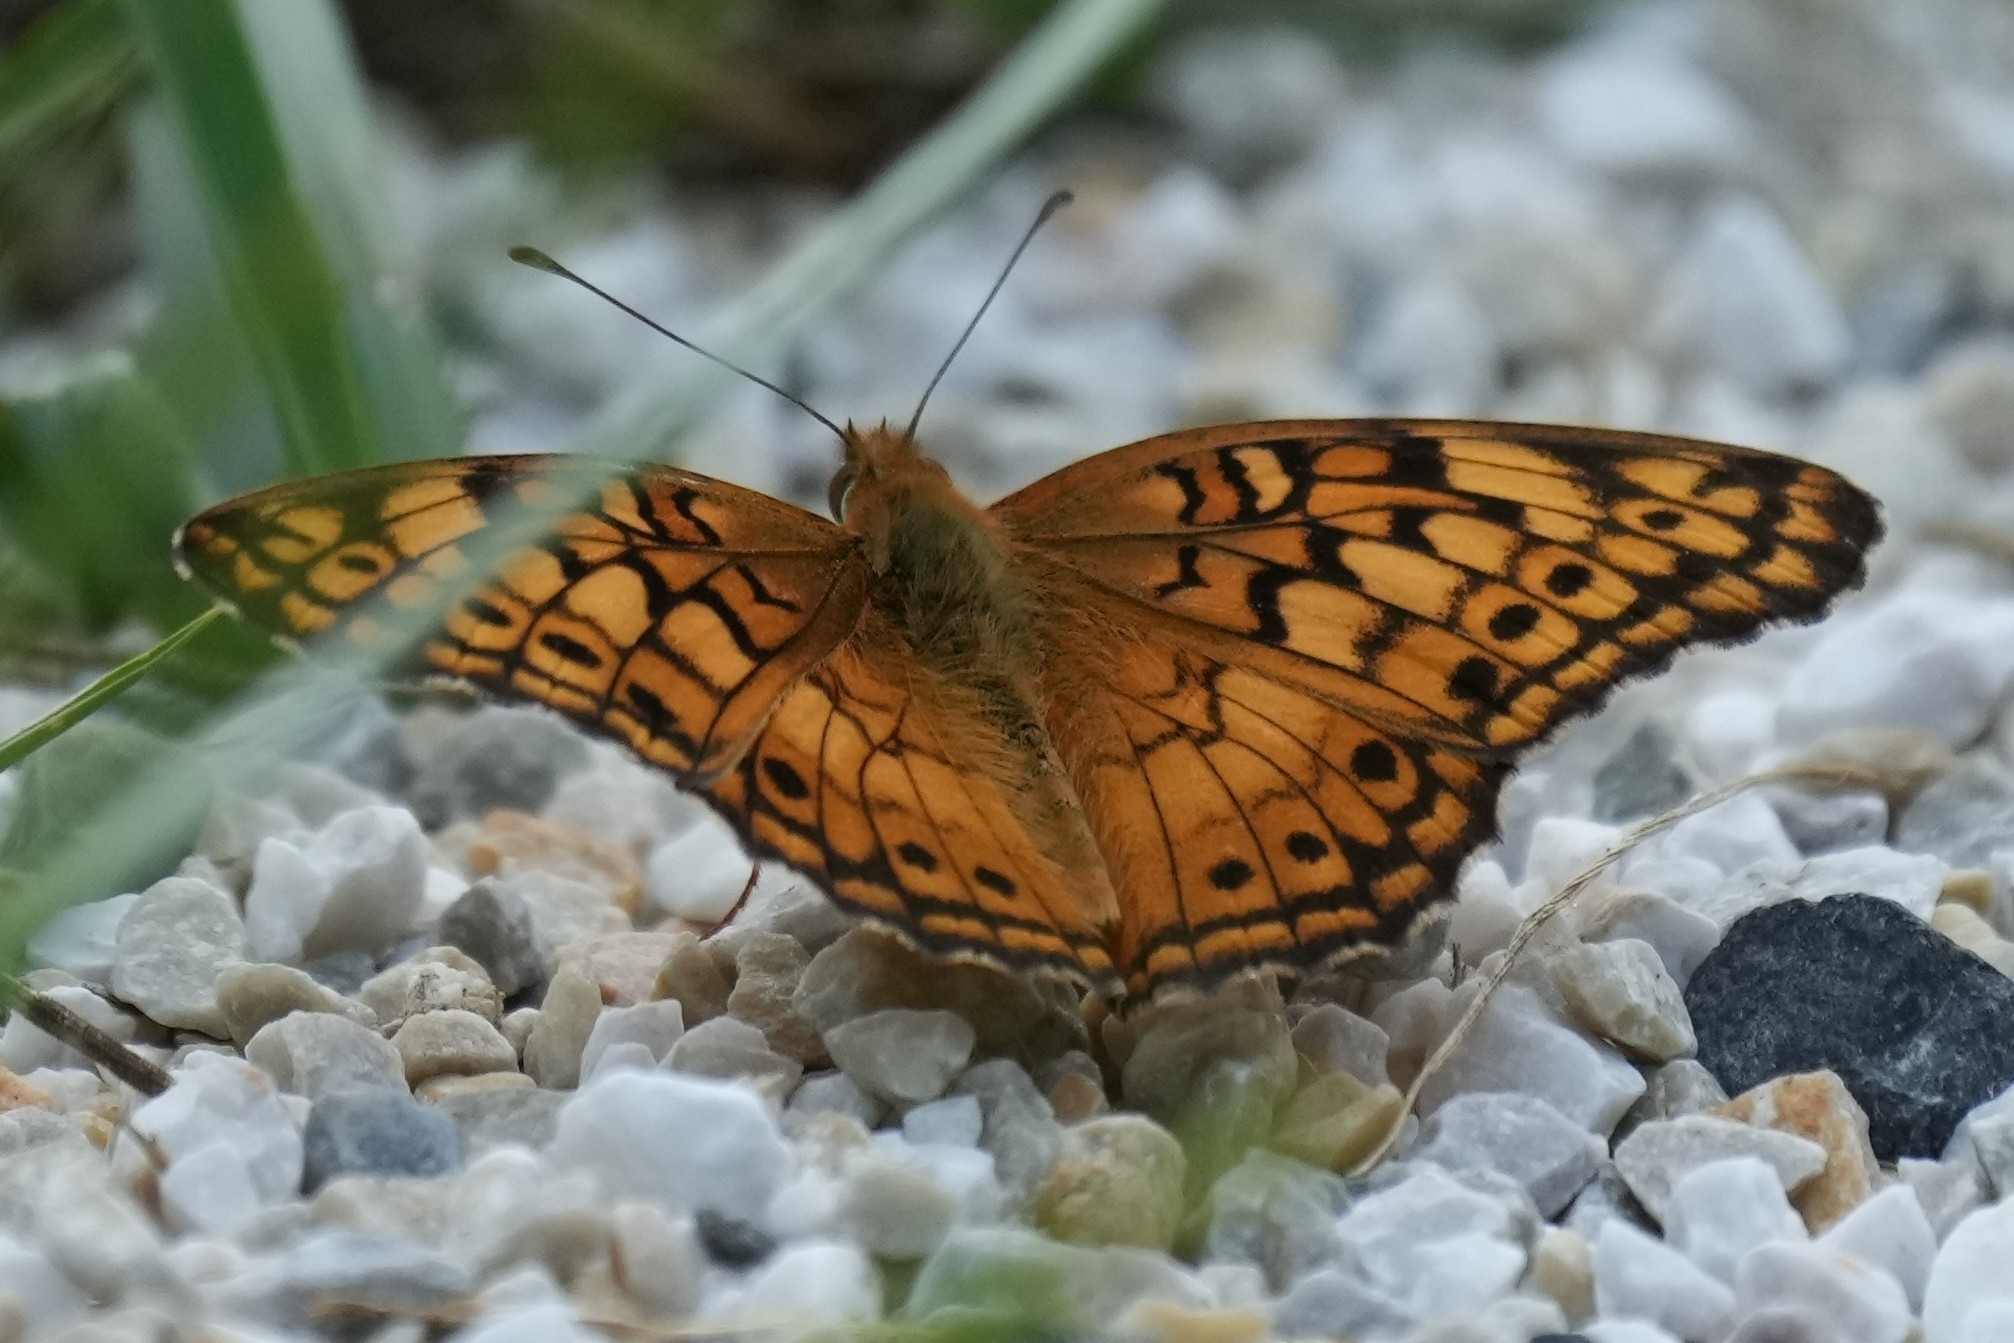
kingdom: Animalia
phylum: Arthropoda
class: Insecta
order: Lepidoptera
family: Nymphalidae
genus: Euptoieta
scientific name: Euptoieta claudia
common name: Variegated fritillary
